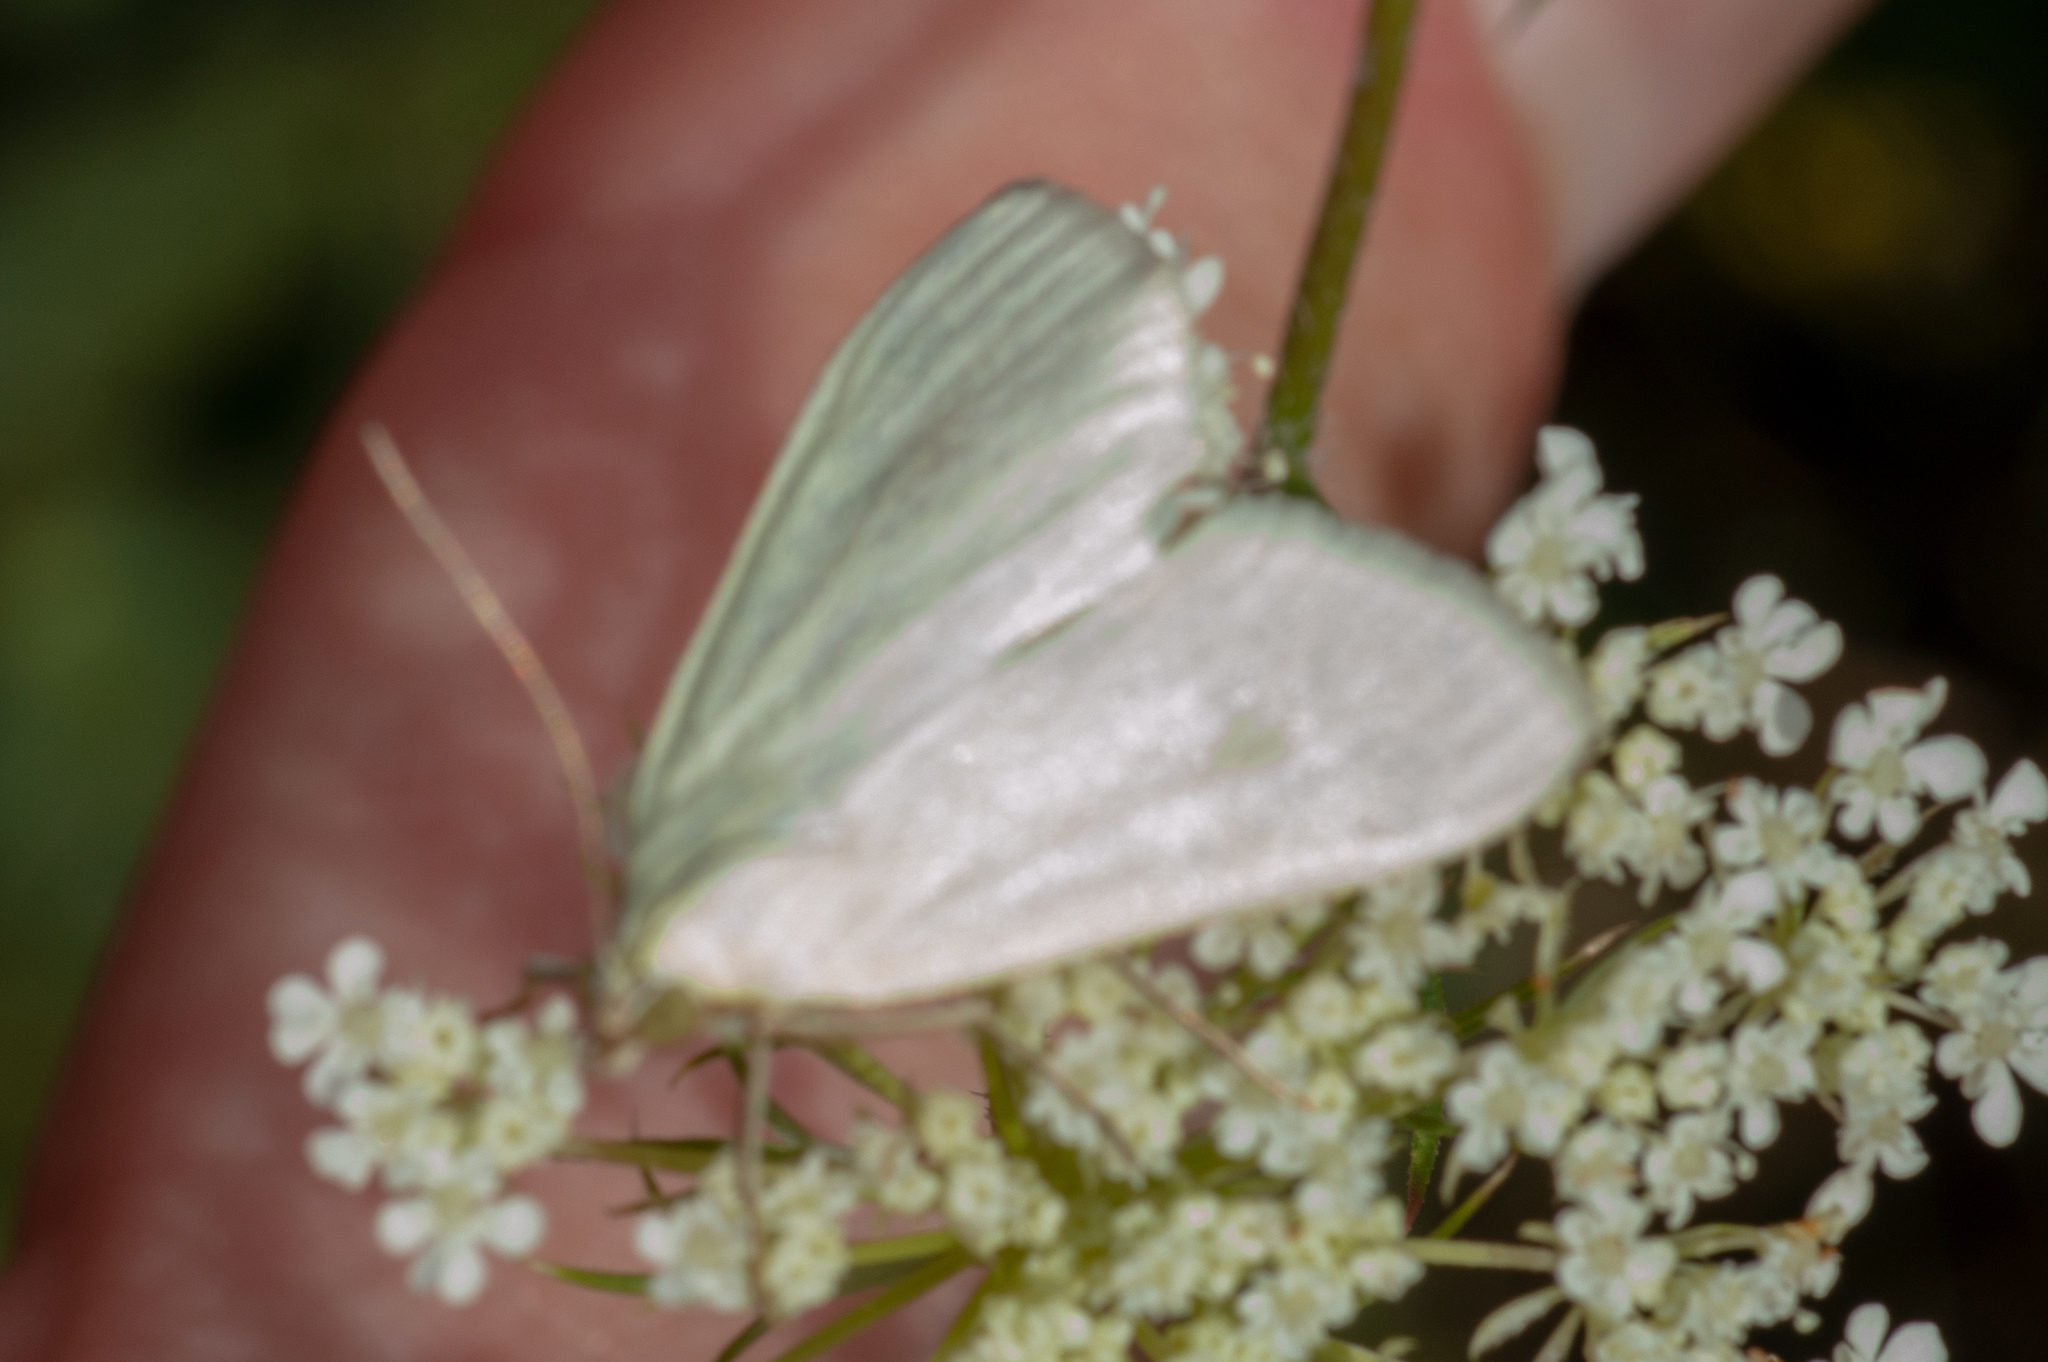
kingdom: Animalia
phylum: Arthropoda
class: Insecta
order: Lepidoptera
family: Crambidae
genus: Sitochroa
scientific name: Sitochroa palealis
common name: Greenish-yellow sitochroa moth
